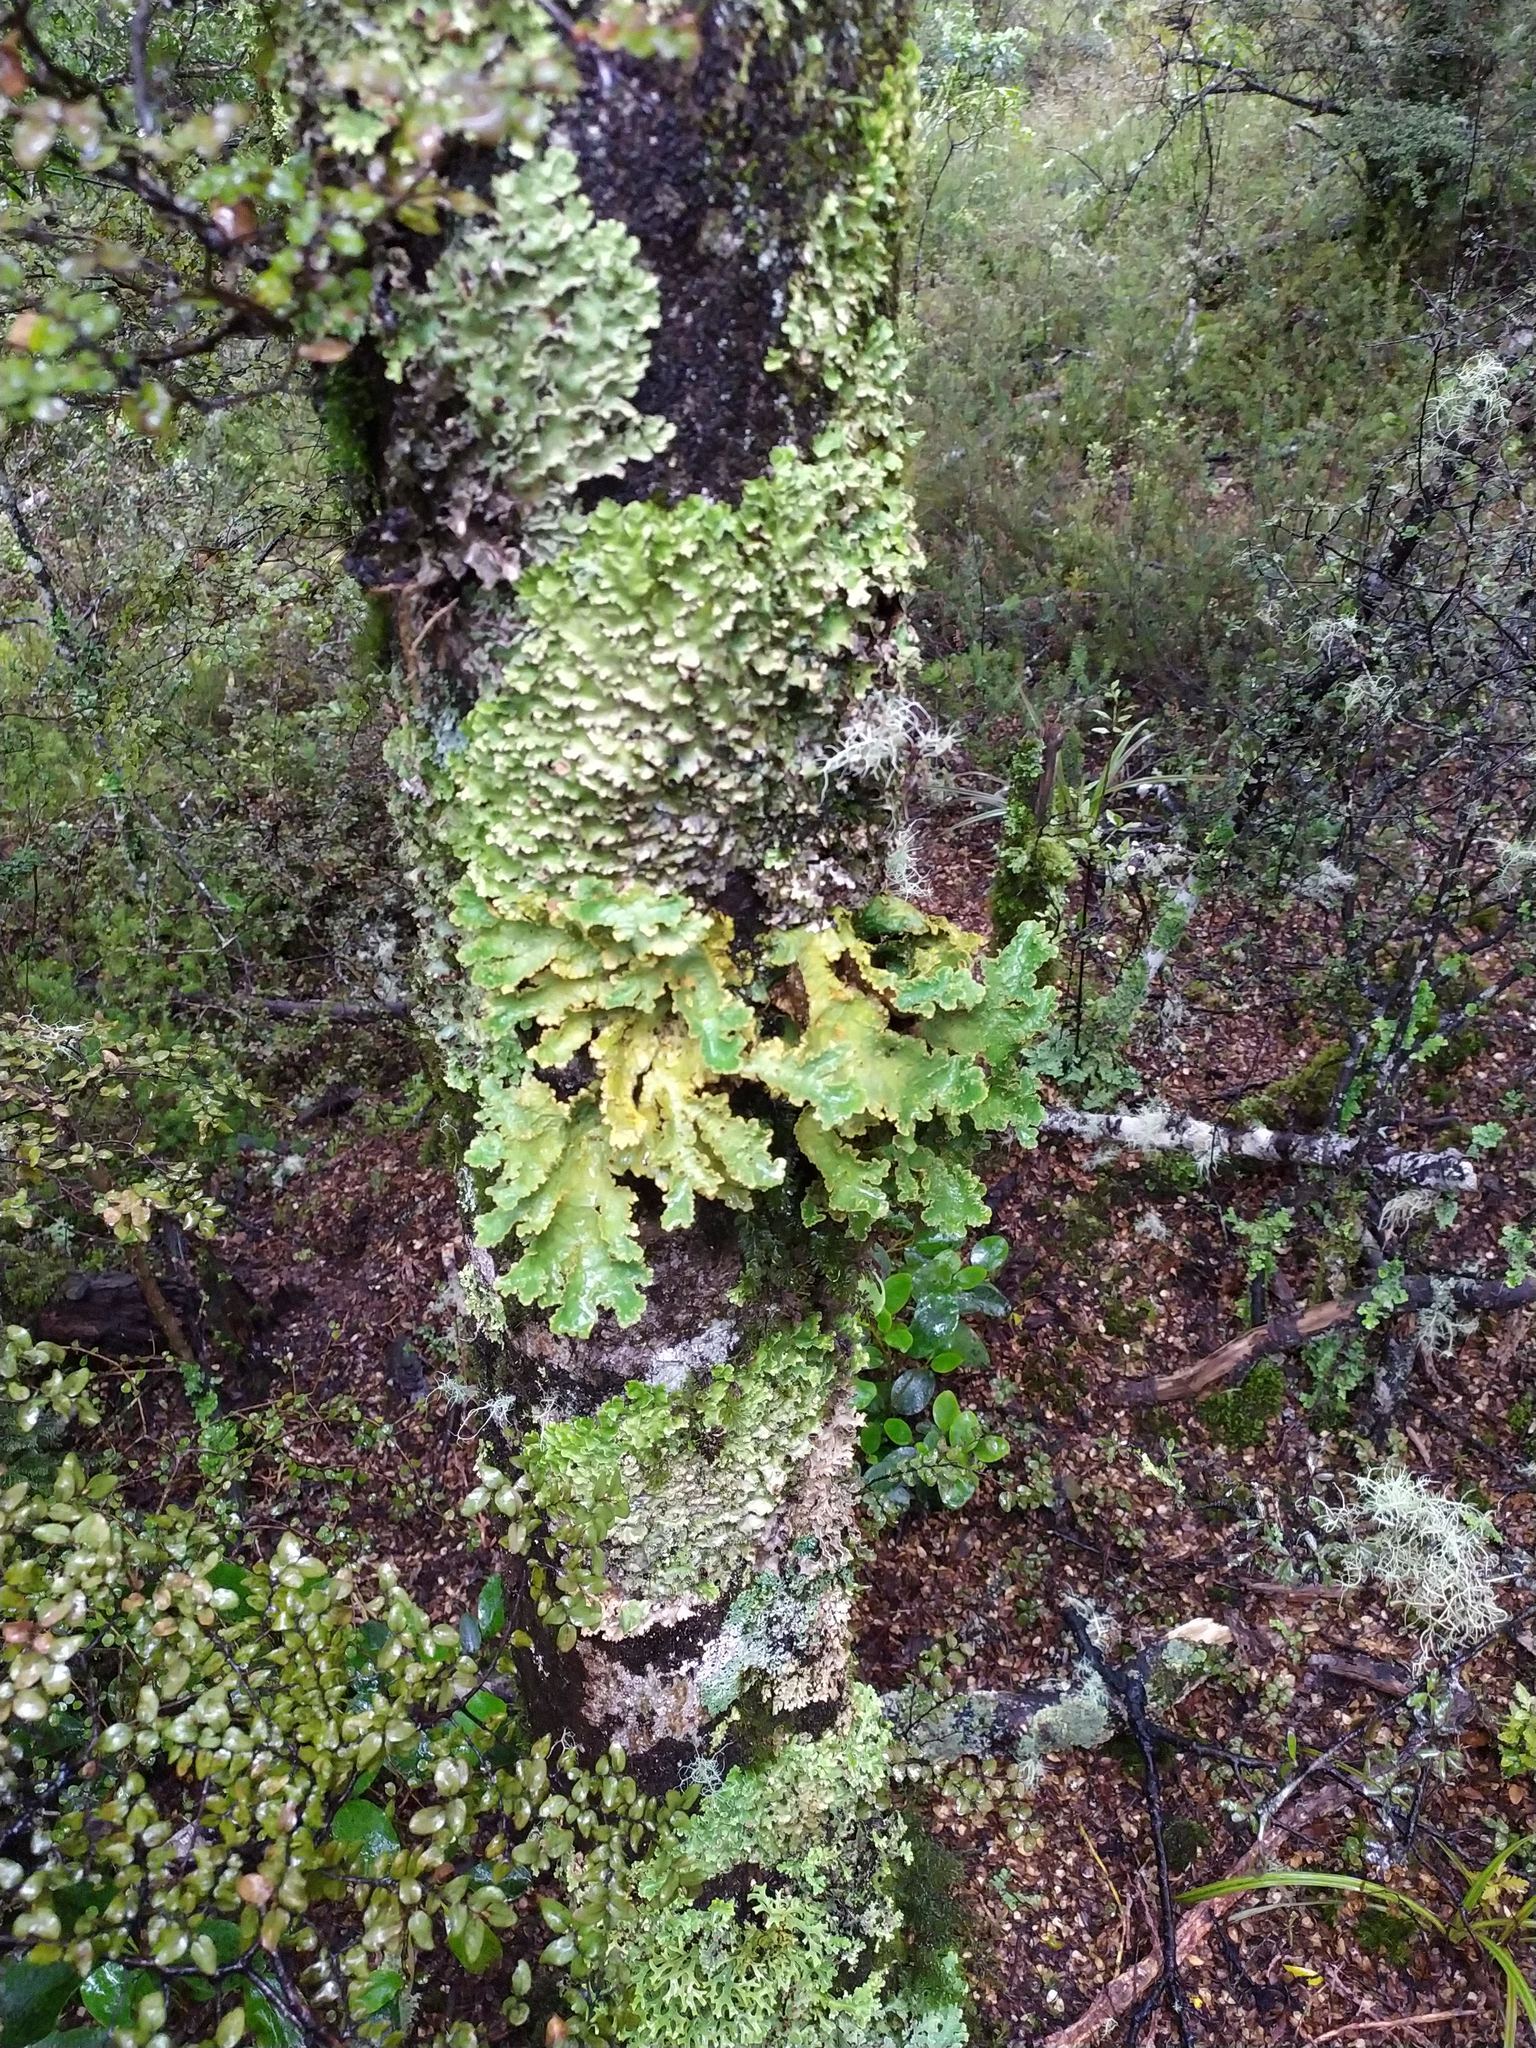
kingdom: Fungi
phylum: Ascomycota
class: Lecanoromycetes
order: Peltigerales
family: Lobariaceae
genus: Yarrumia
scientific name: Yarrumia colensoi
